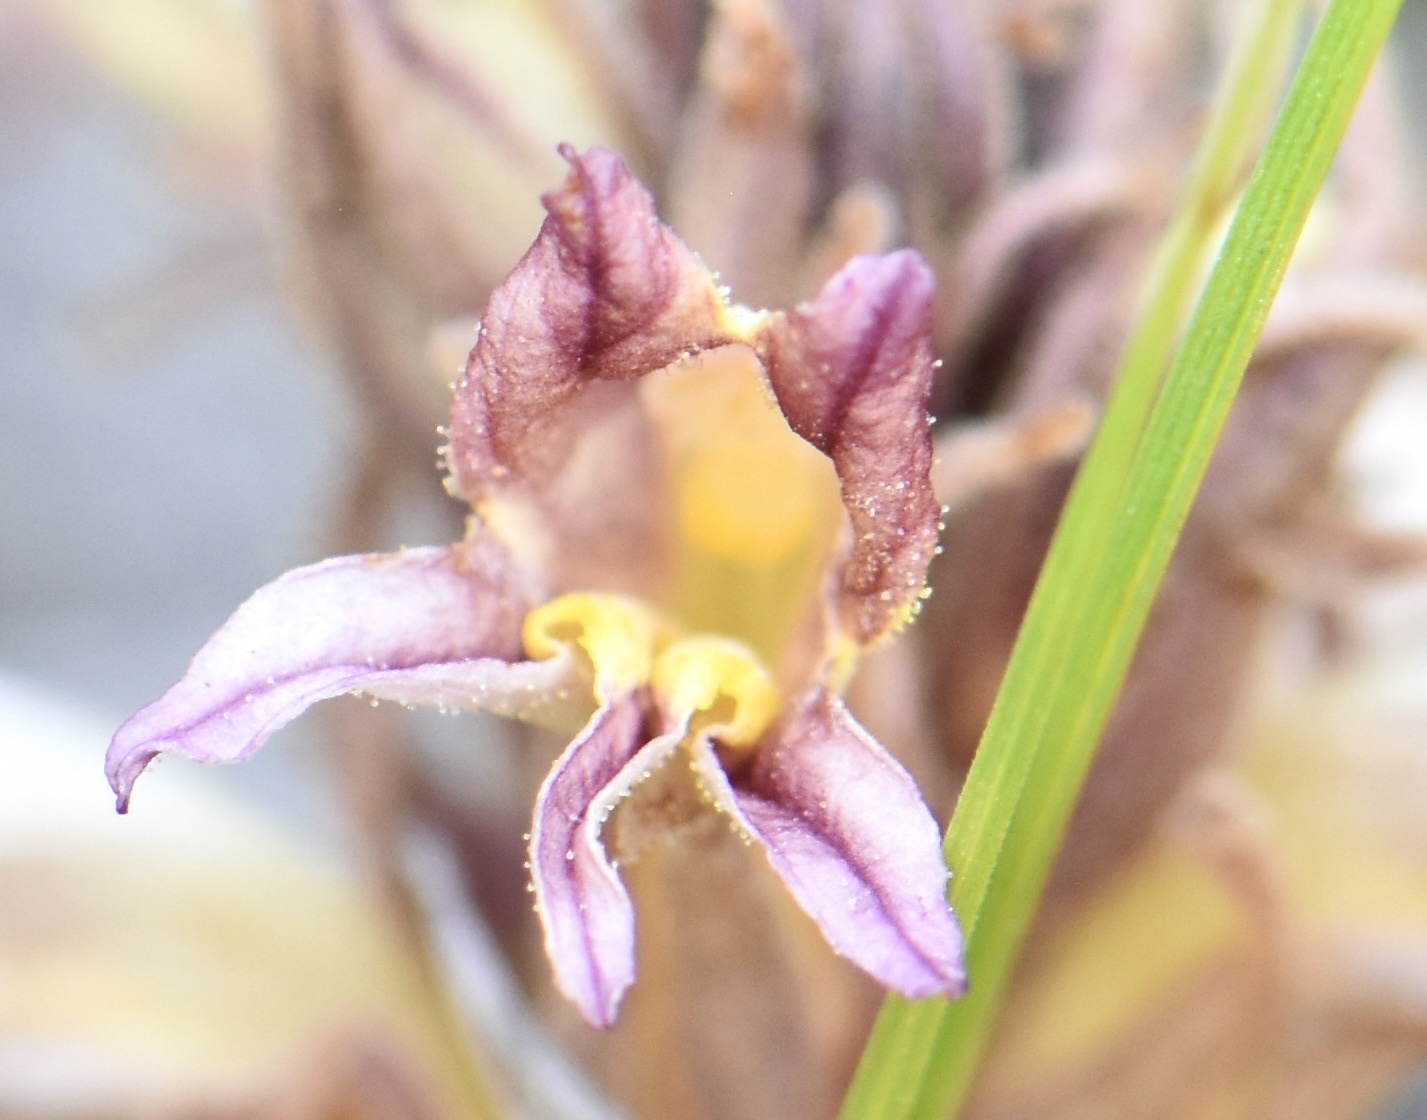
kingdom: Plantae
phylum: Tracheophyta
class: Magnoliopsida
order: Lamiales
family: Orobanchaceae
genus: Aphyllon
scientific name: Aphyllon corymbosum
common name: Flat-top broomrape
